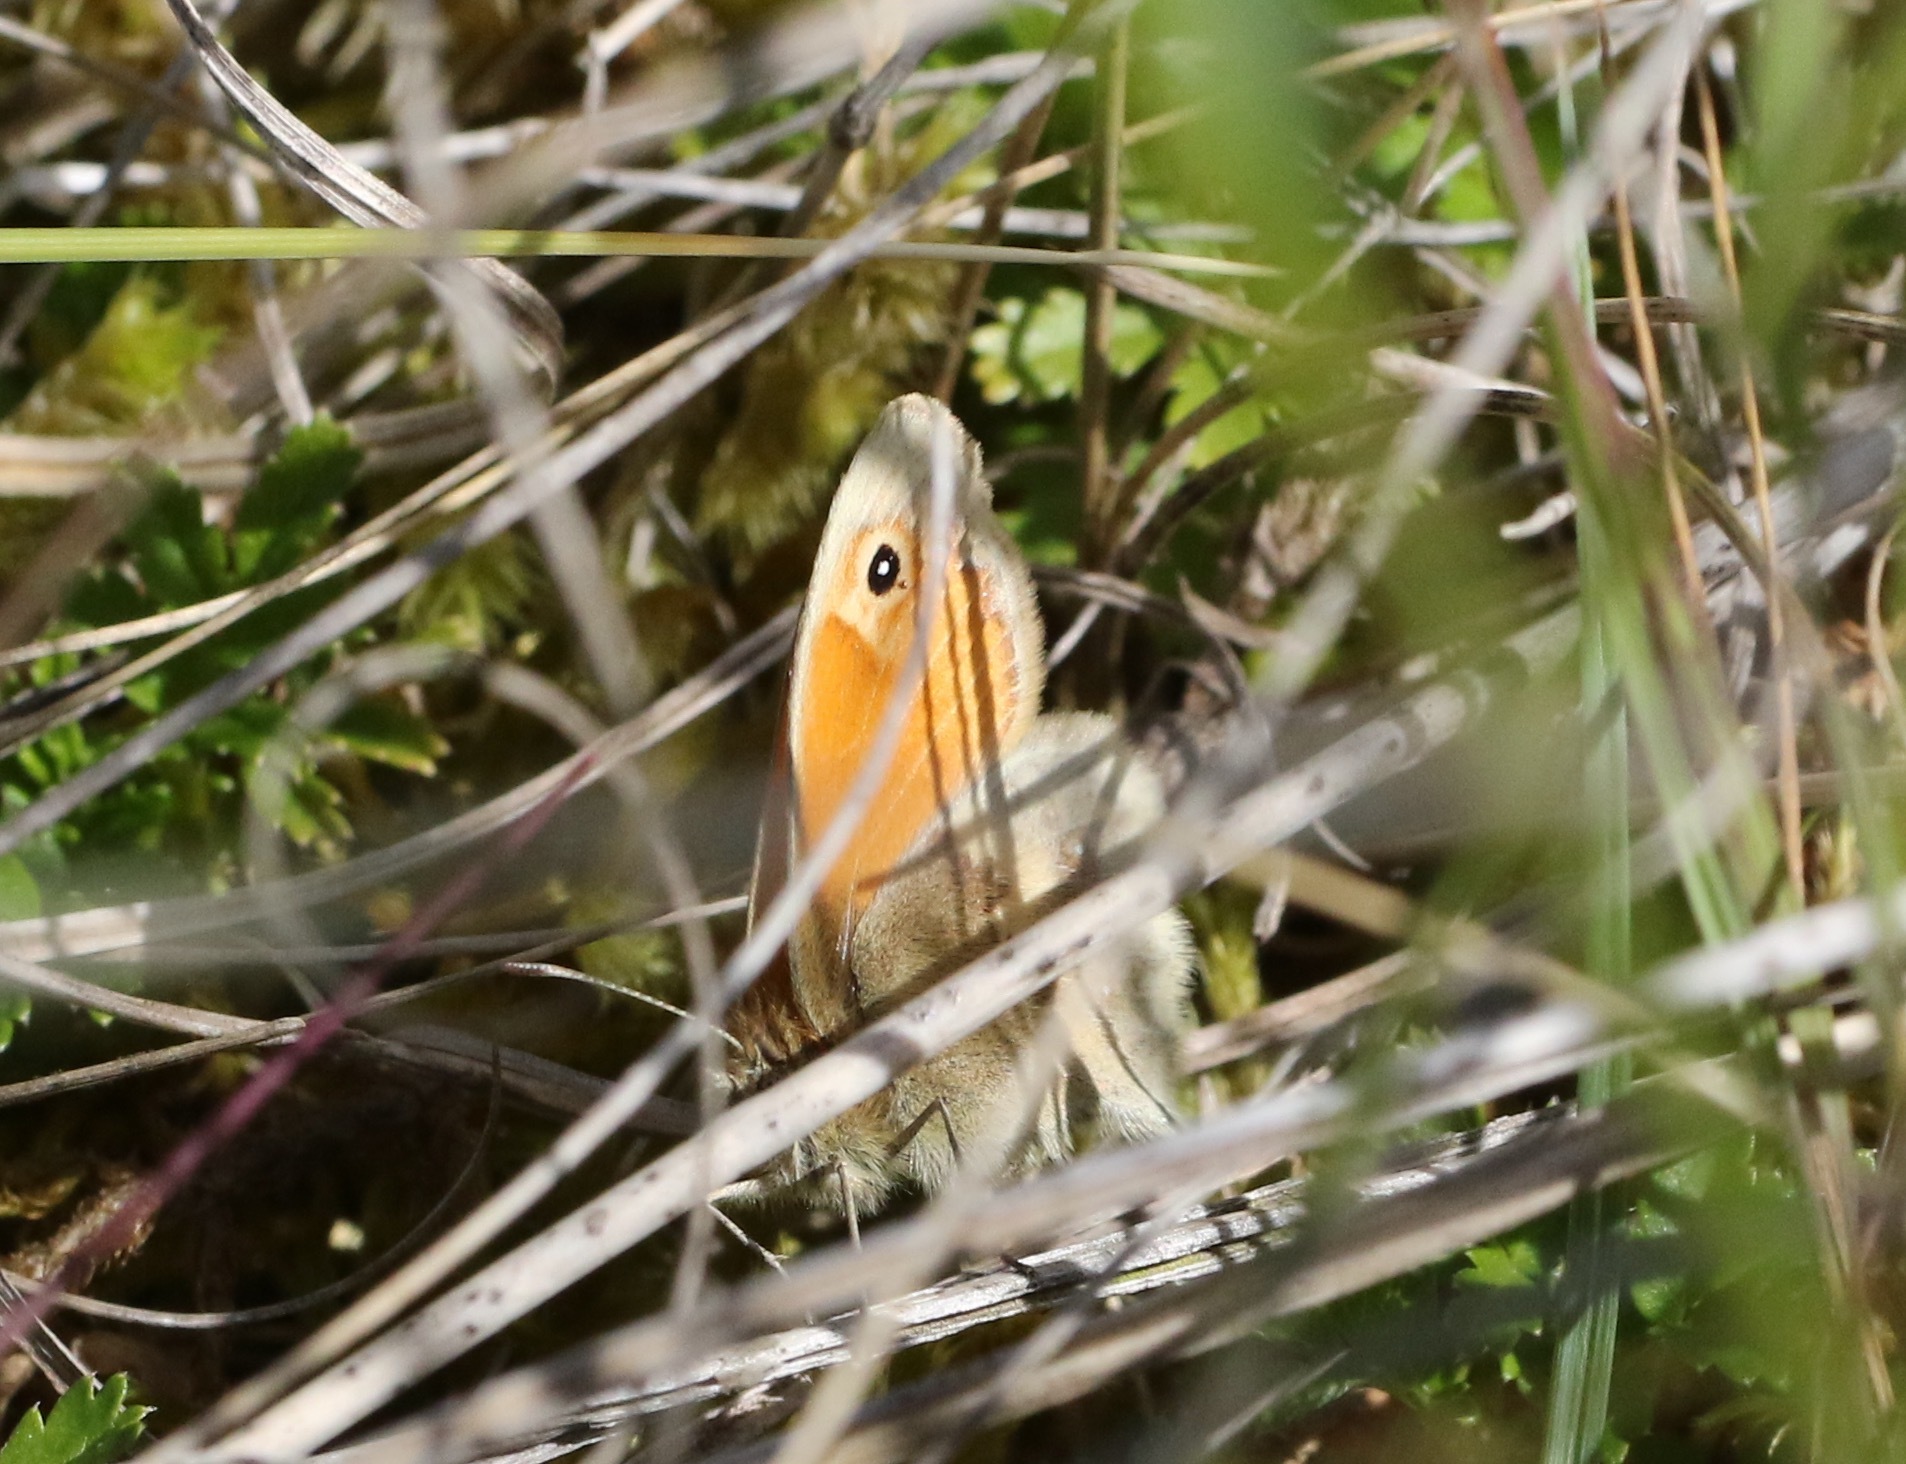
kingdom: Animalia
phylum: Arthropoda
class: Insecta
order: Lepidoptera
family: Nymphalidae
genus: Coenonympha
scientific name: Coenonympha pamphilus
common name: Small heath
